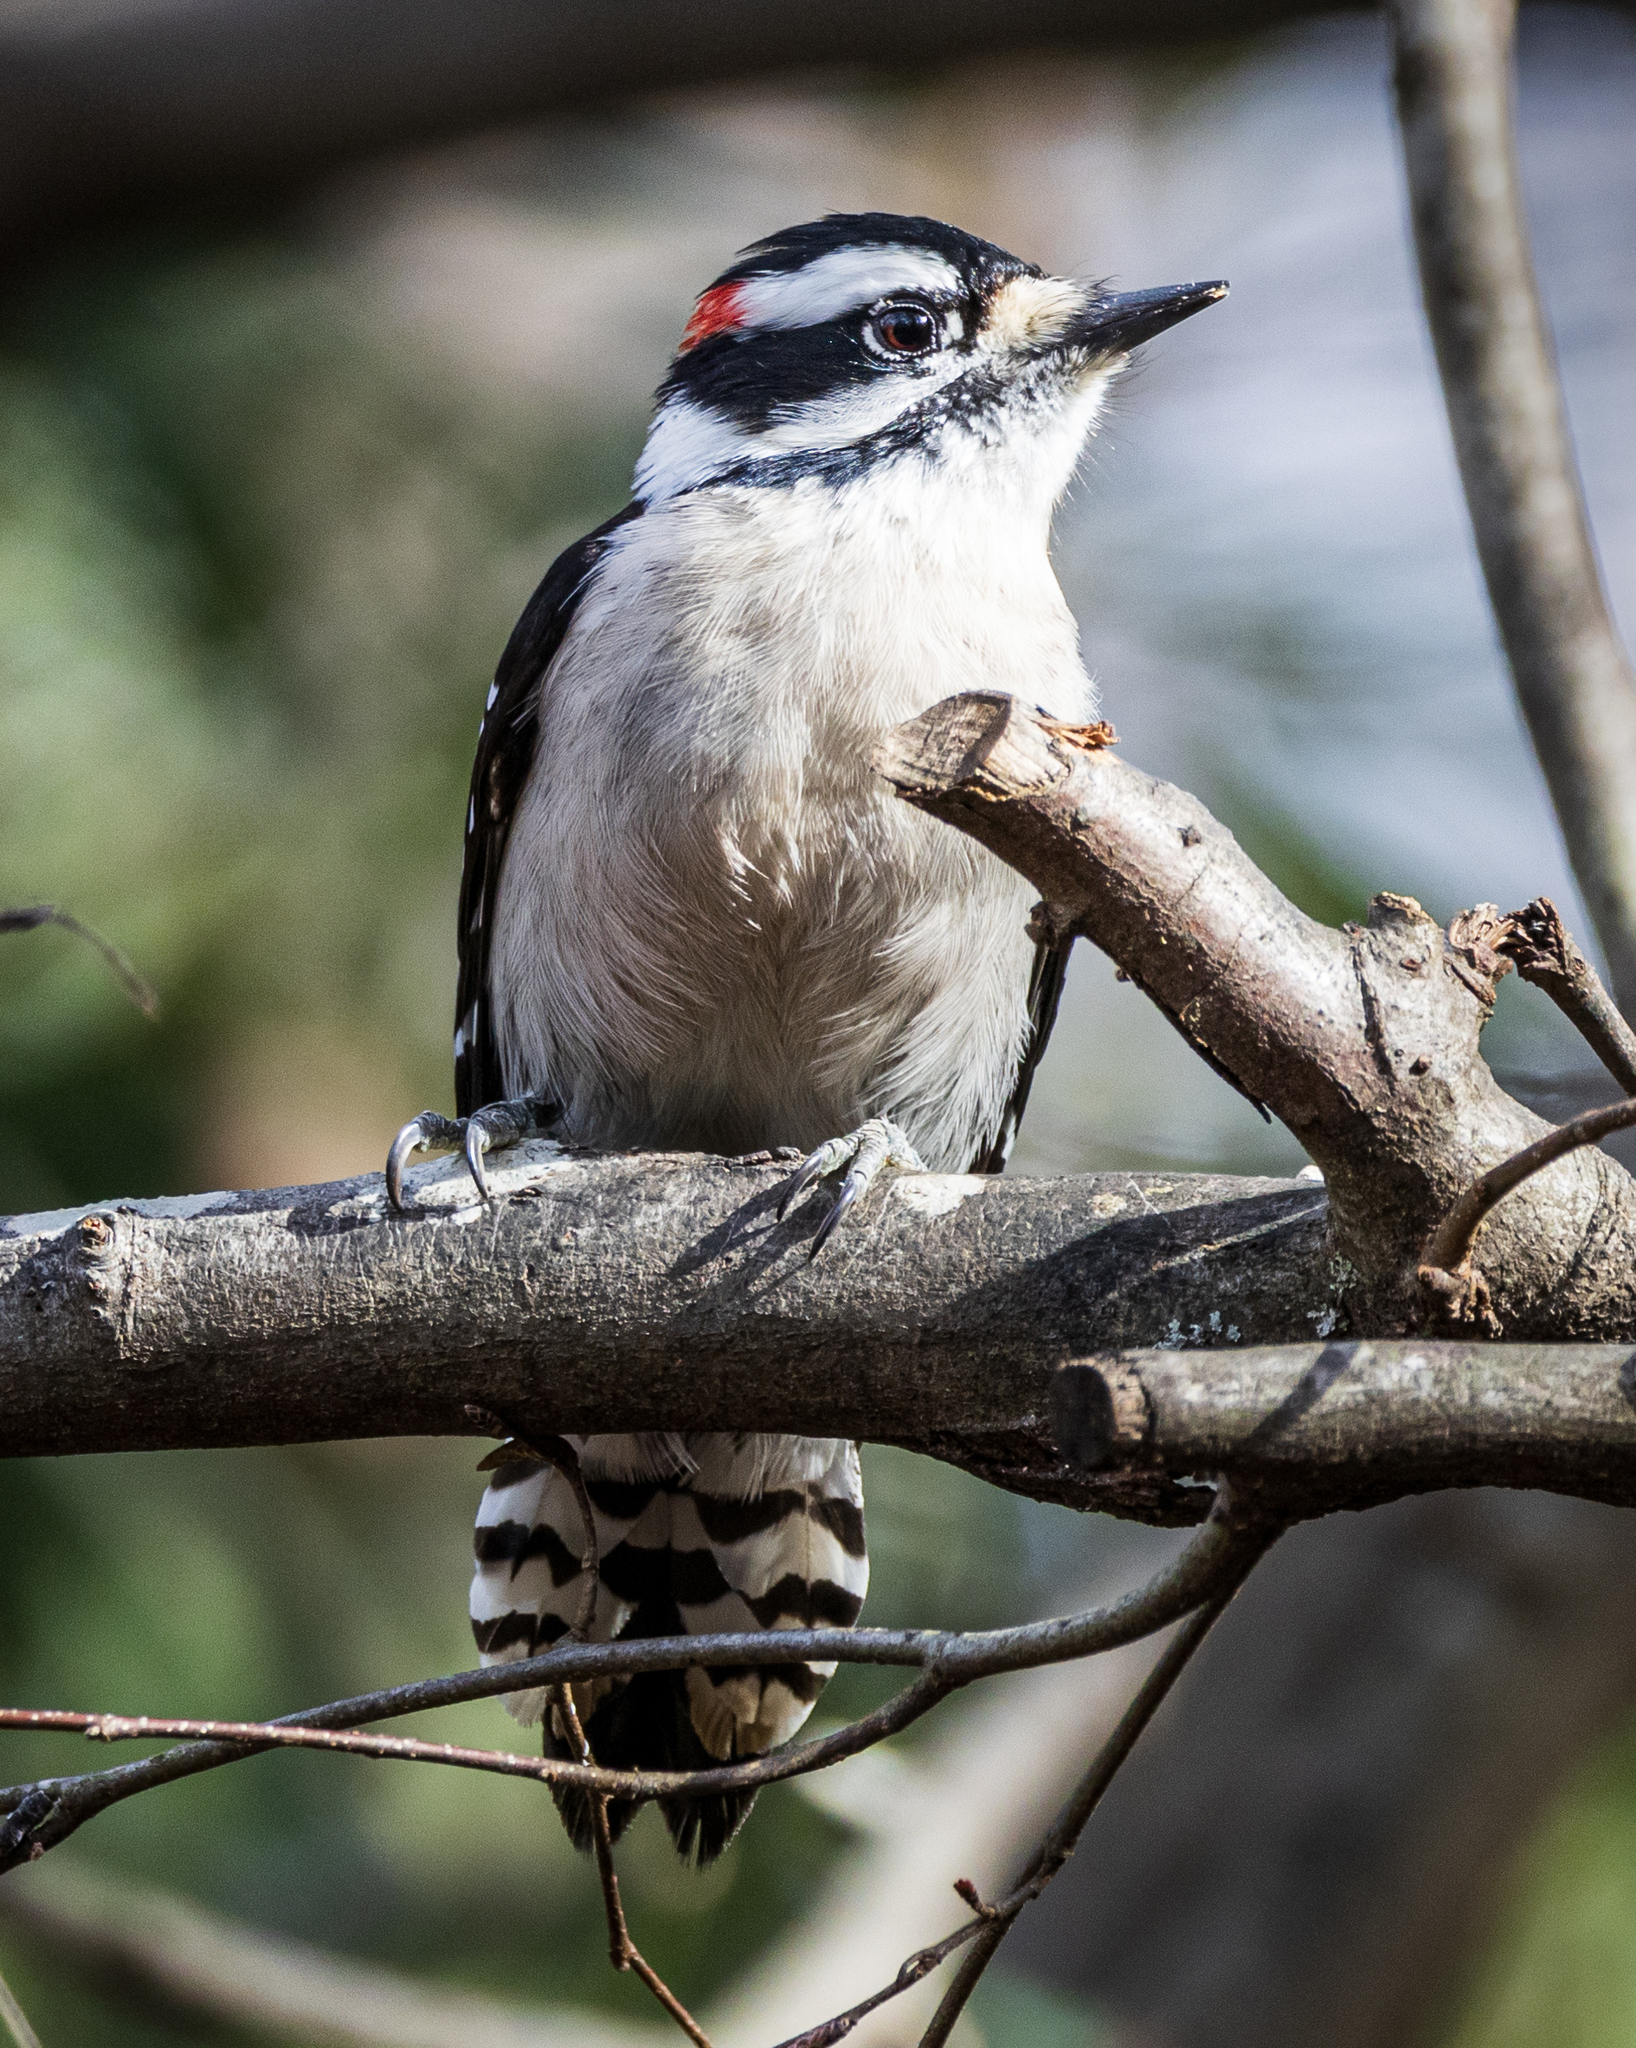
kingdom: Animalia
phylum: Chordata
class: Aves
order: Piciformes
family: Picidae
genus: Dryobates
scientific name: Dryobates pubescens
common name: Downy woodpecker
